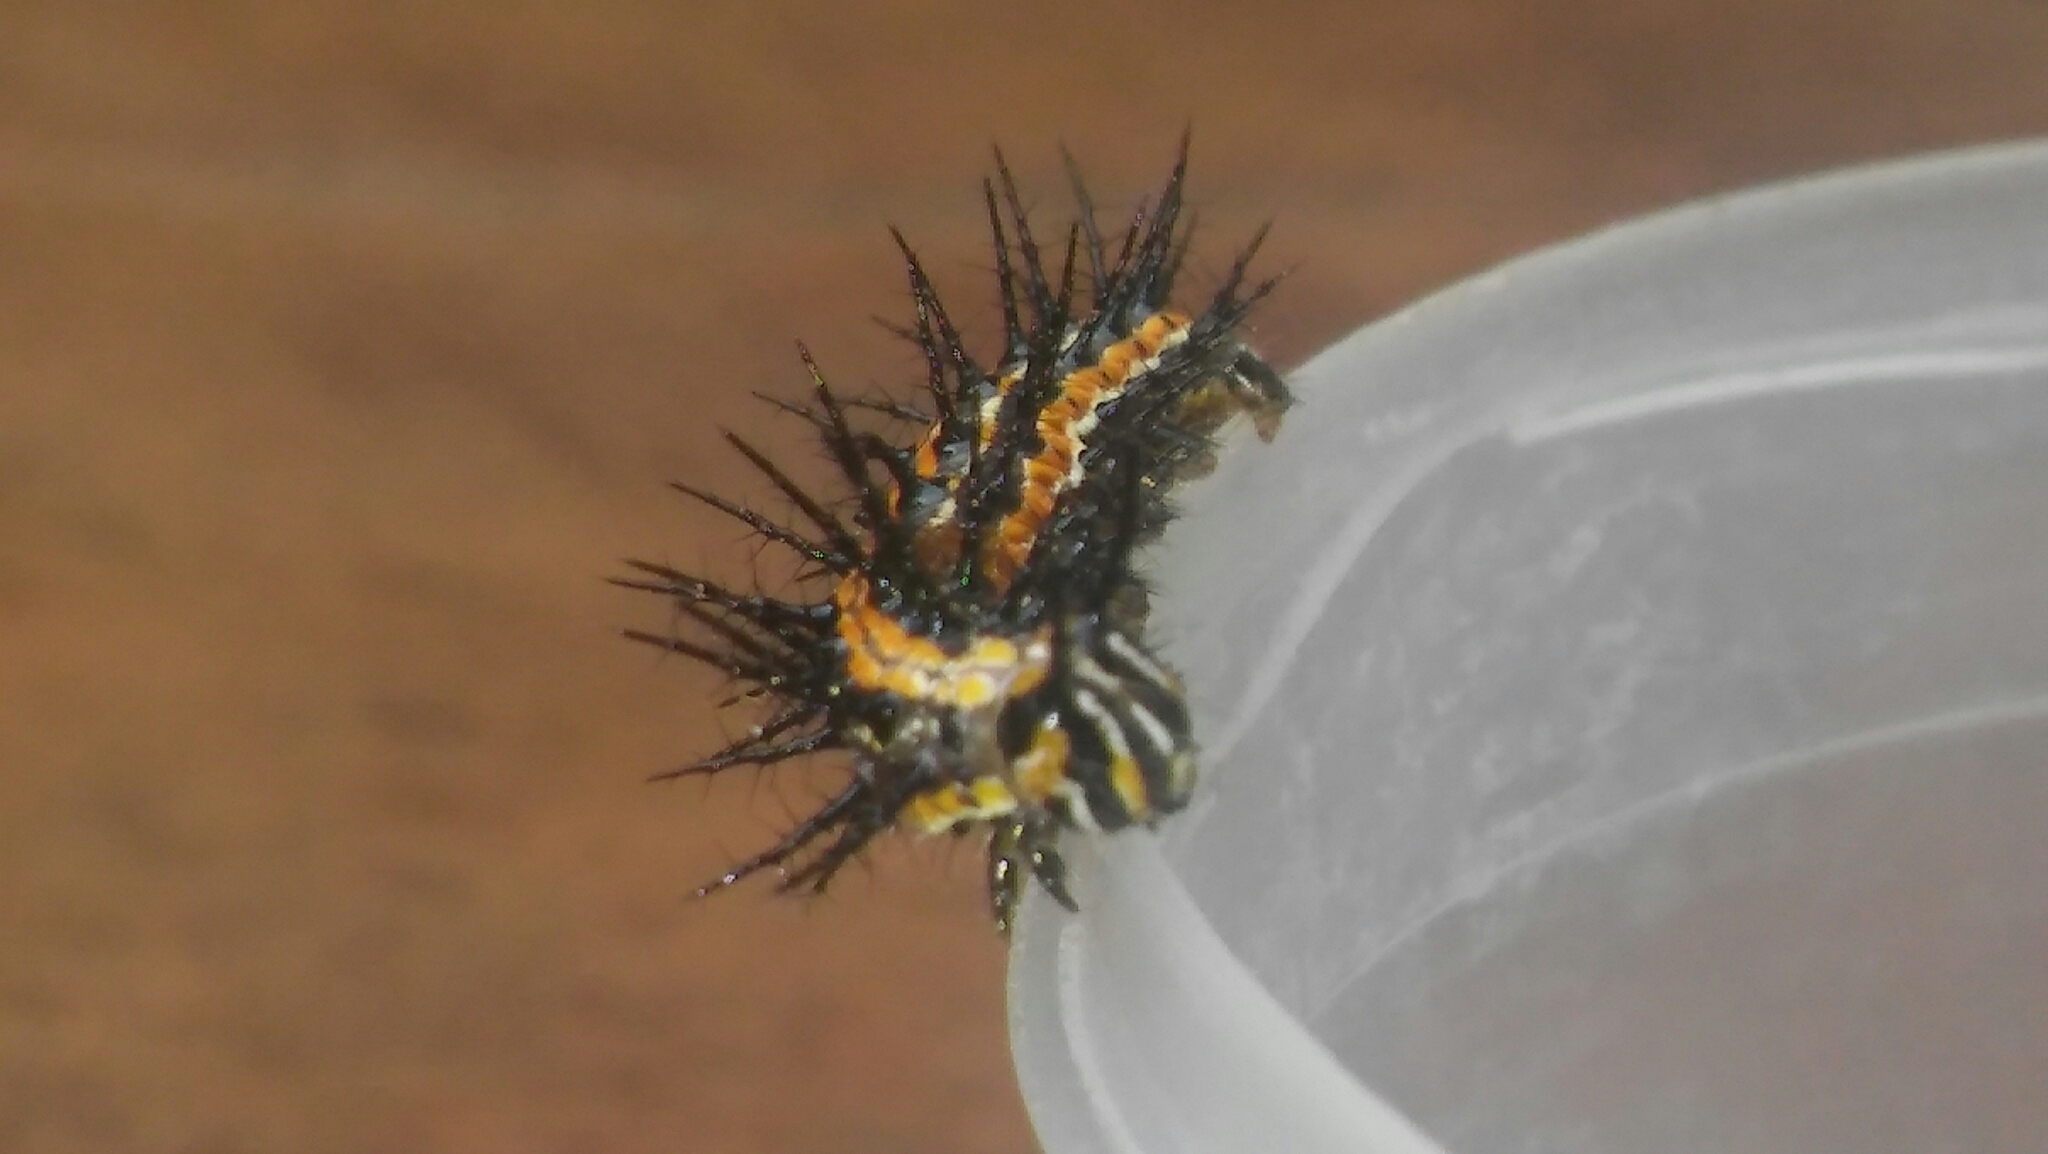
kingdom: Animalia
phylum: Arthropoda
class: Insecta
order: Lepidoptera
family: Nymphalidae
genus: Dione
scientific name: Dione vanillae
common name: Gulf fritillary
